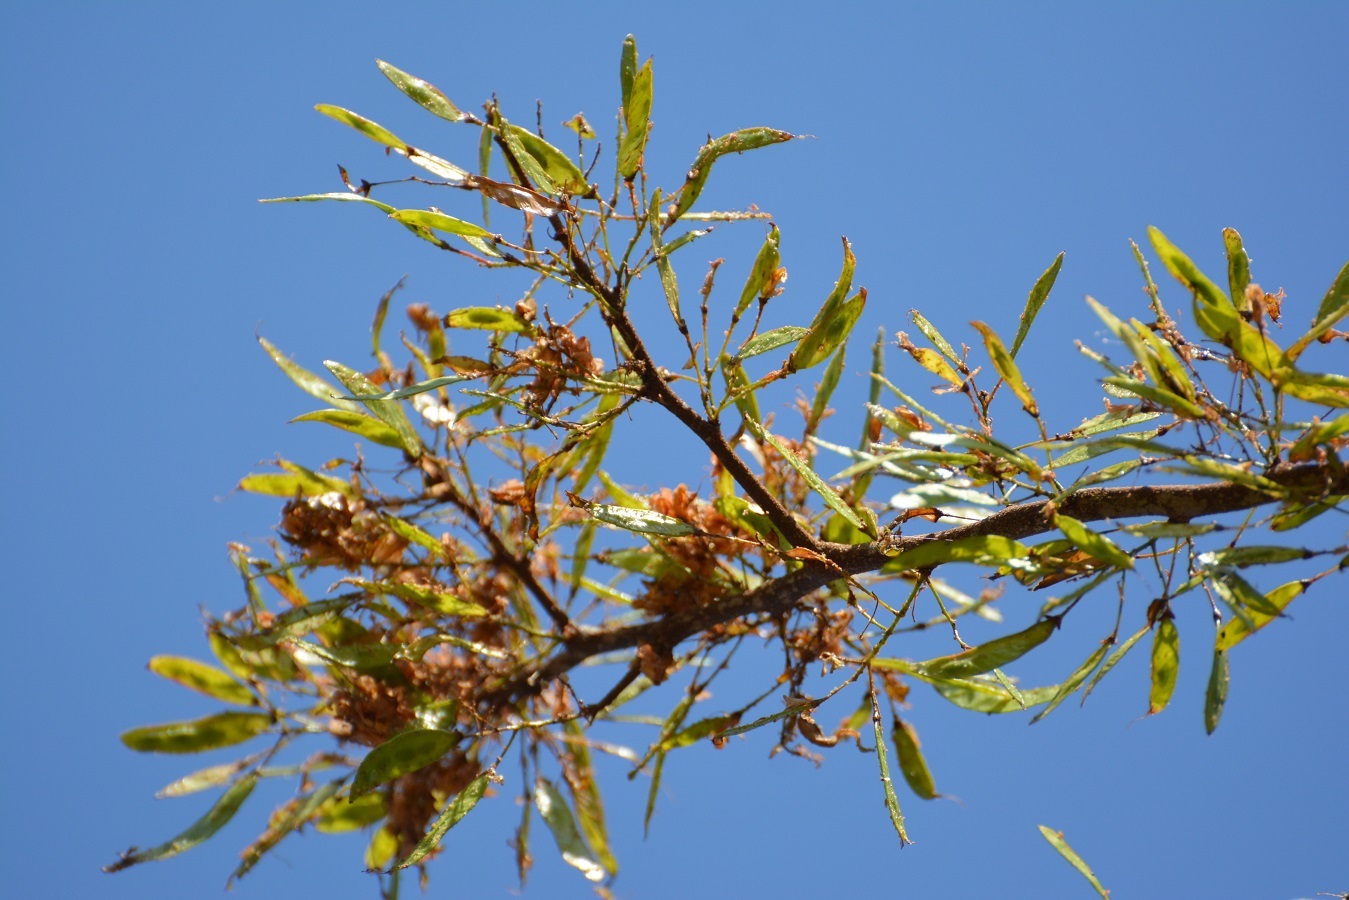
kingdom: Plantae
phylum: Tracheophyta
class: Magnoliopsida
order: Fabales
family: Fabaceae
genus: Haematoxylum
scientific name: Haematoxylum brasiletto
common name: Peachwood
